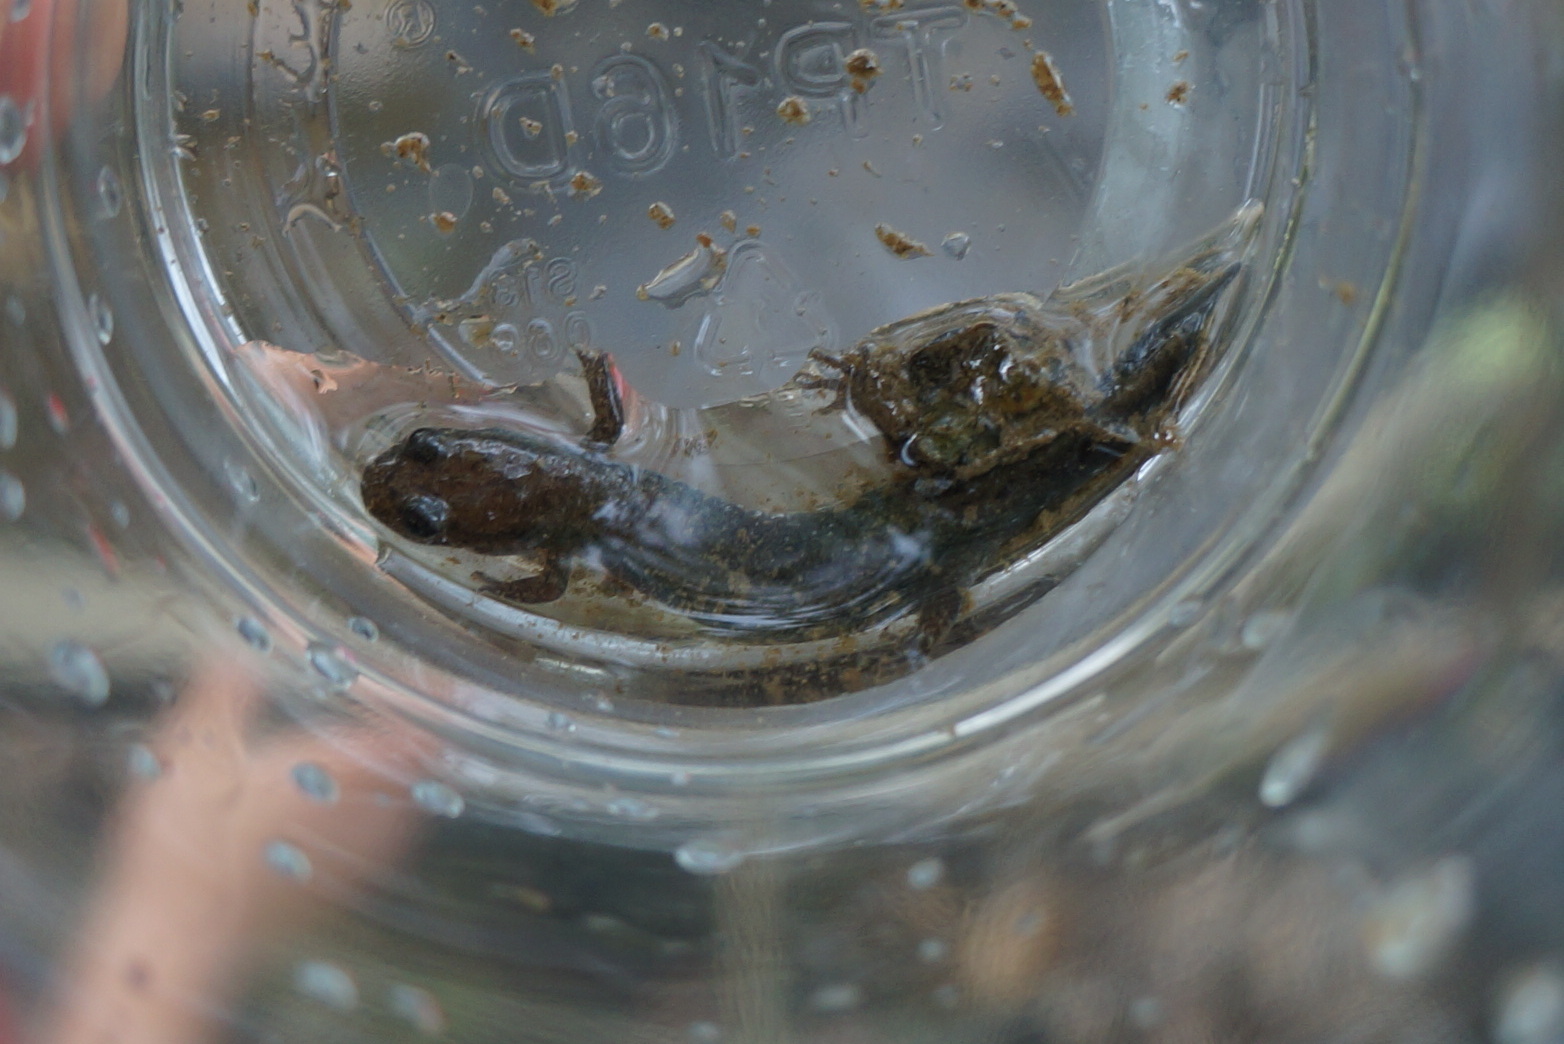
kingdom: Animalia
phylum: Chordata
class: Amphibia
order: Caudata
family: Plethodontidae
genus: Desmognathus
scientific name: Desmognathus fuscus
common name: Northern dusky salamander
